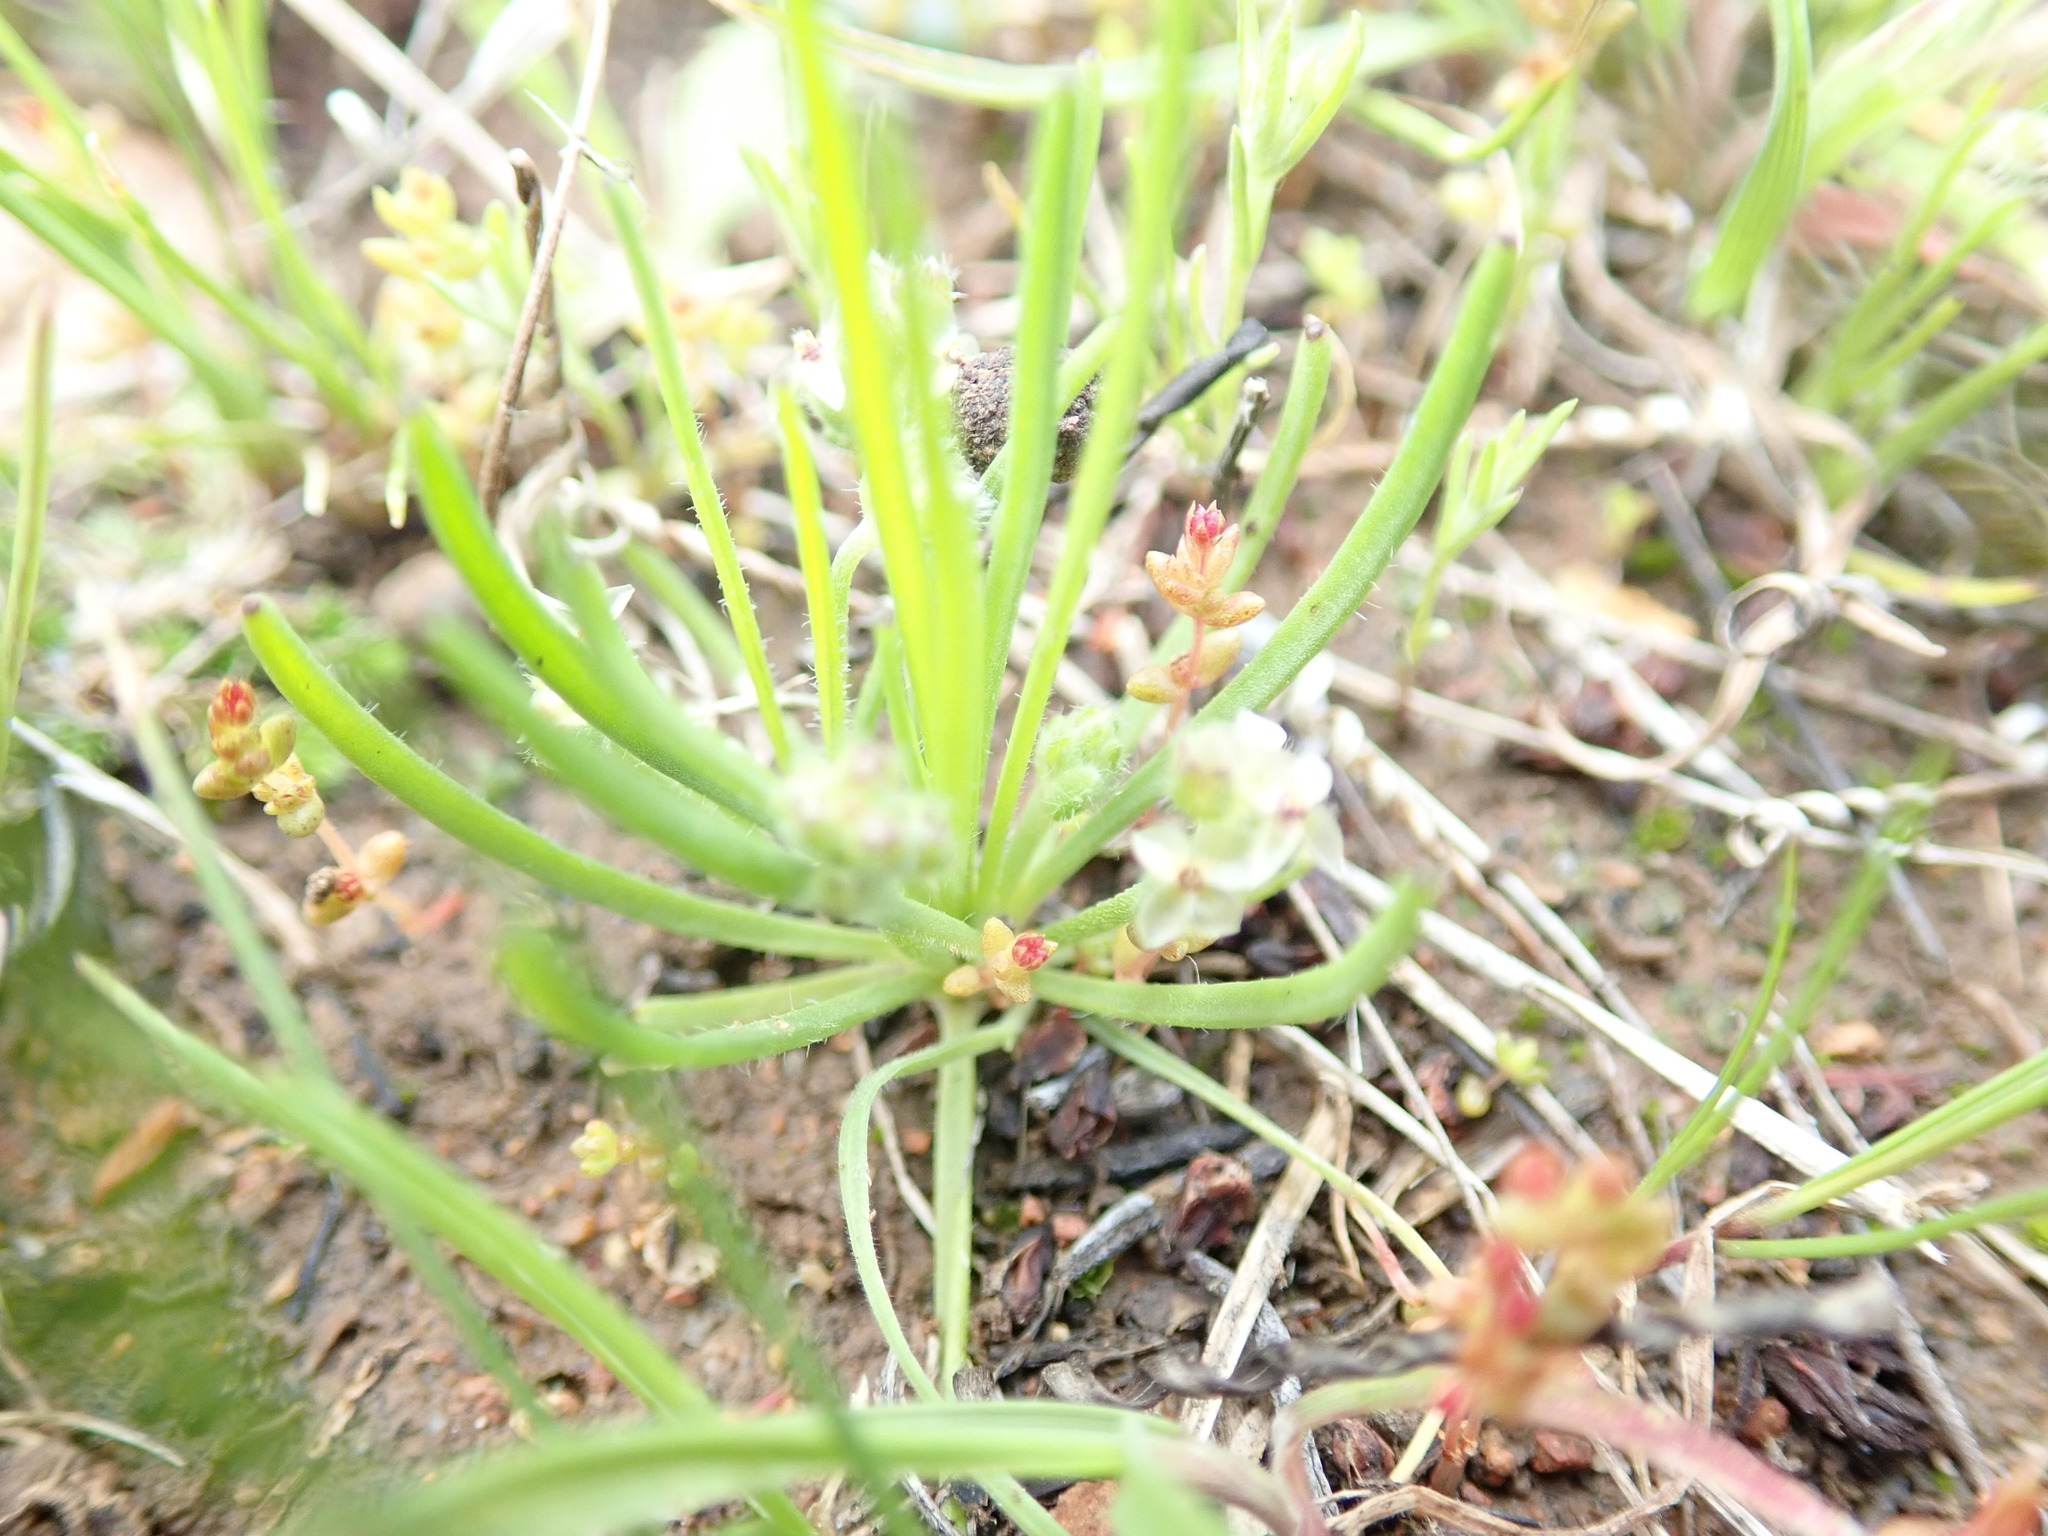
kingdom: Plantae
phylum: Tracheophyta
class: Magnoliopsida
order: Lamiales
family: Plantaginaceae
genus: Plantago
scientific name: Plantago erecta
